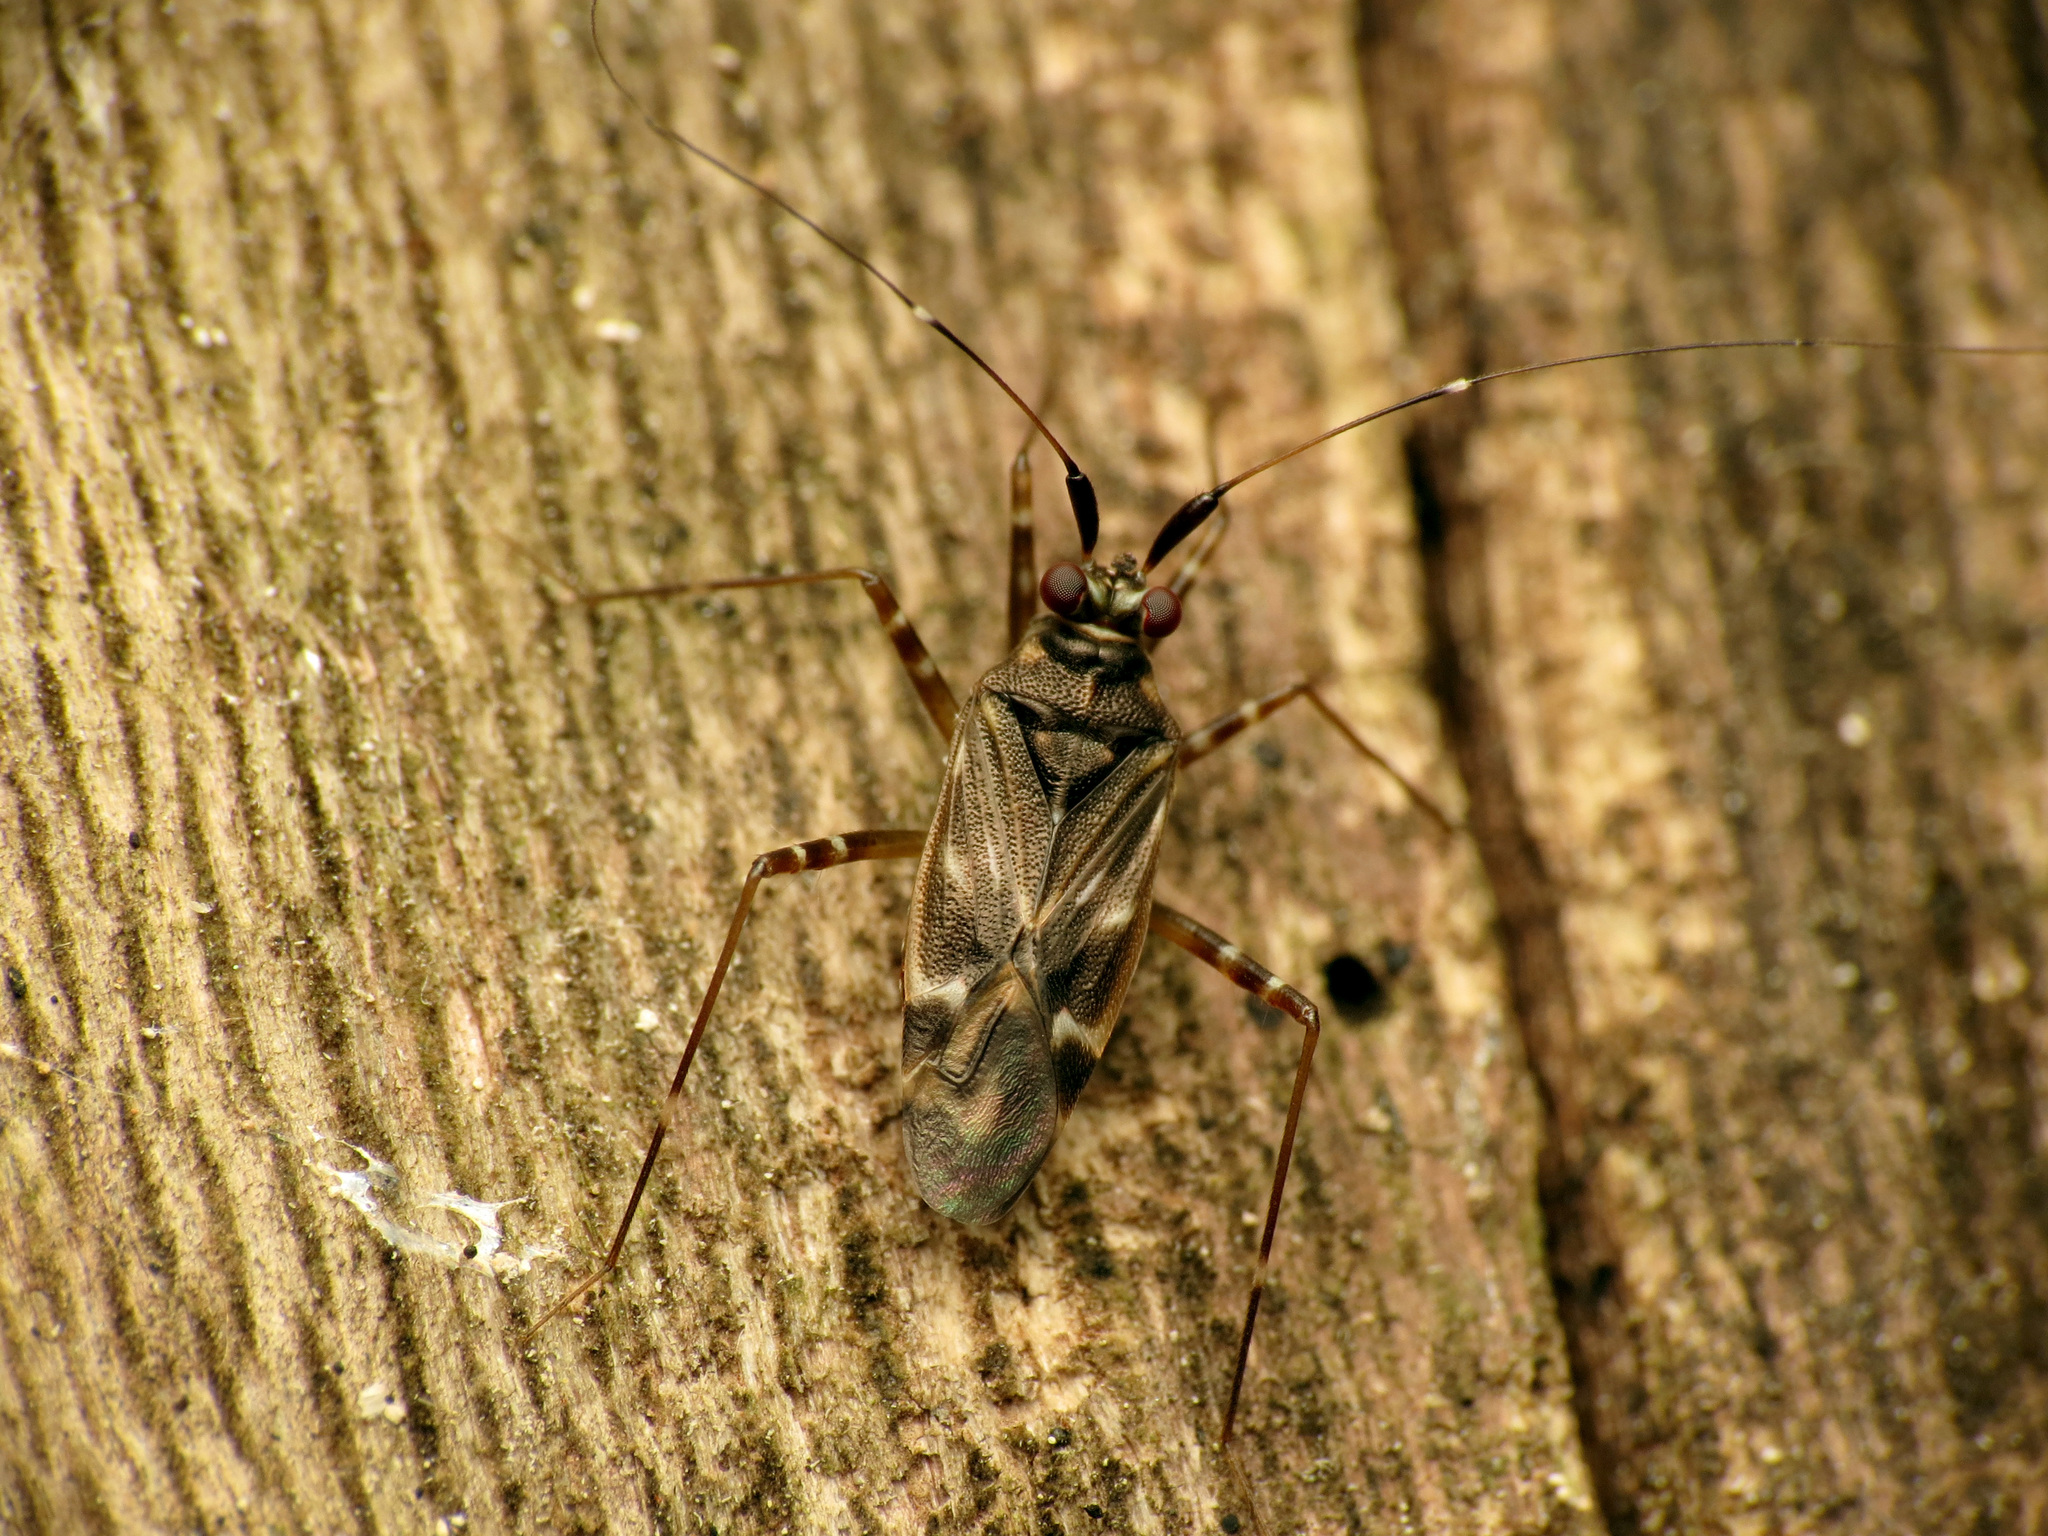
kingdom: Animalia
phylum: Arthropoda
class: Insecta
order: Hemiptera
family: Miridae
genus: Cylapus
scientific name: Cylapus tenuicornis
